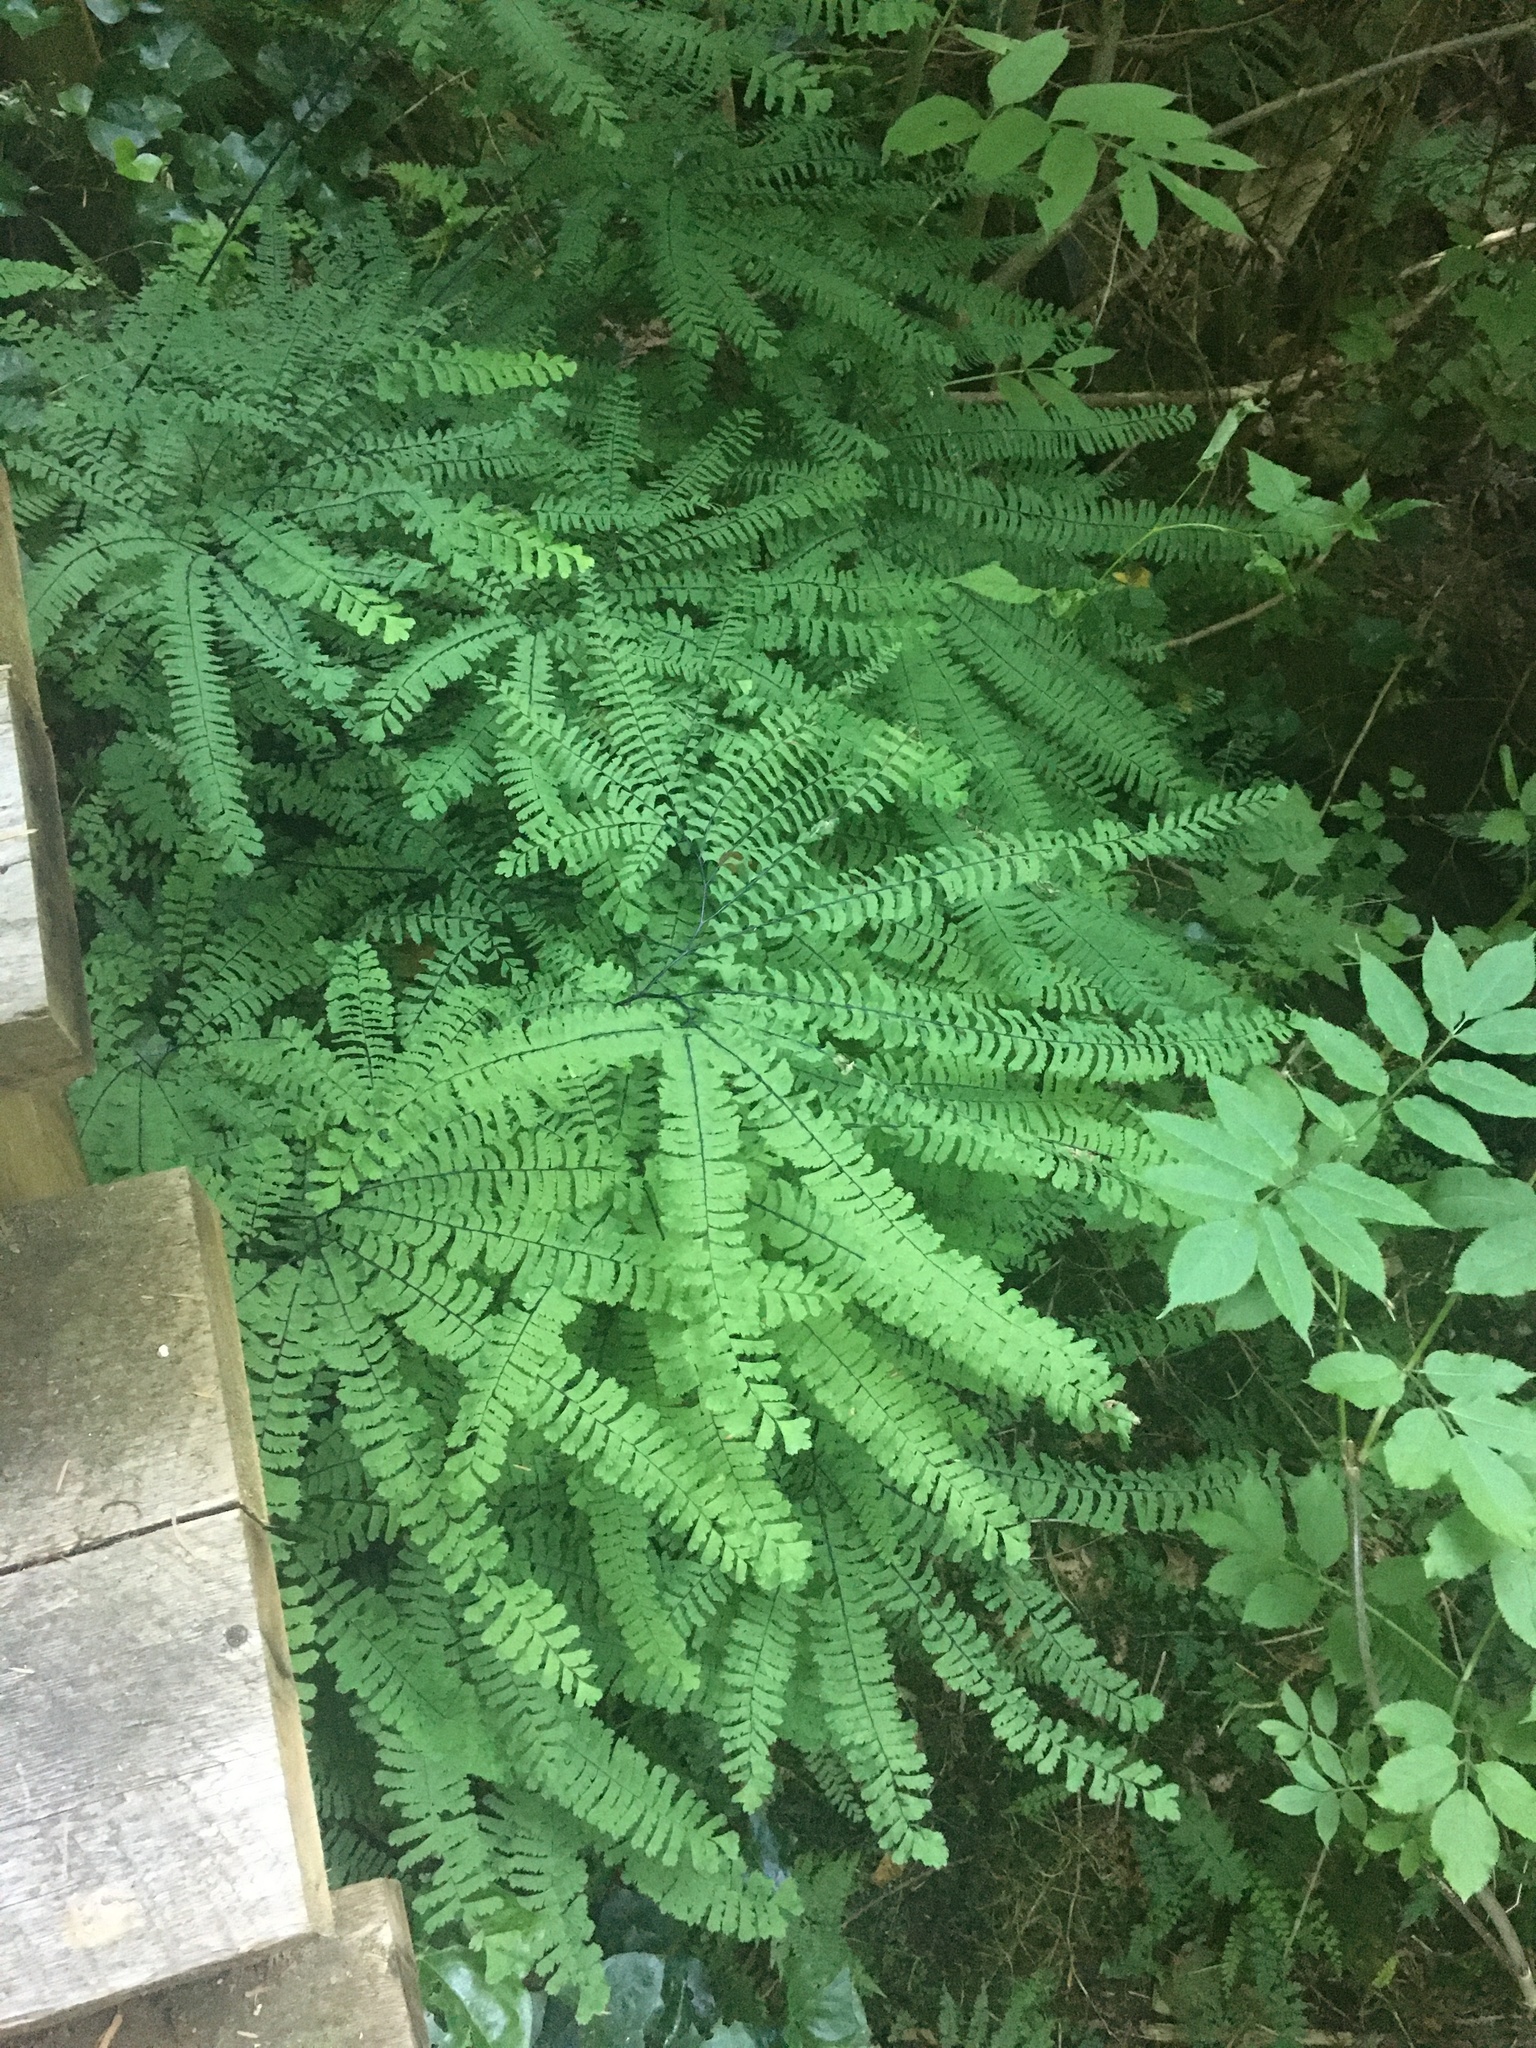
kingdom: Plantae
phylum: Tracheophyta
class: Polypodiopsida
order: Polypodiales
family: Pteridaceae
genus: Adiantum
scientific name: Adiantum aleuticum
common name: Aleutian maidenhair fern
